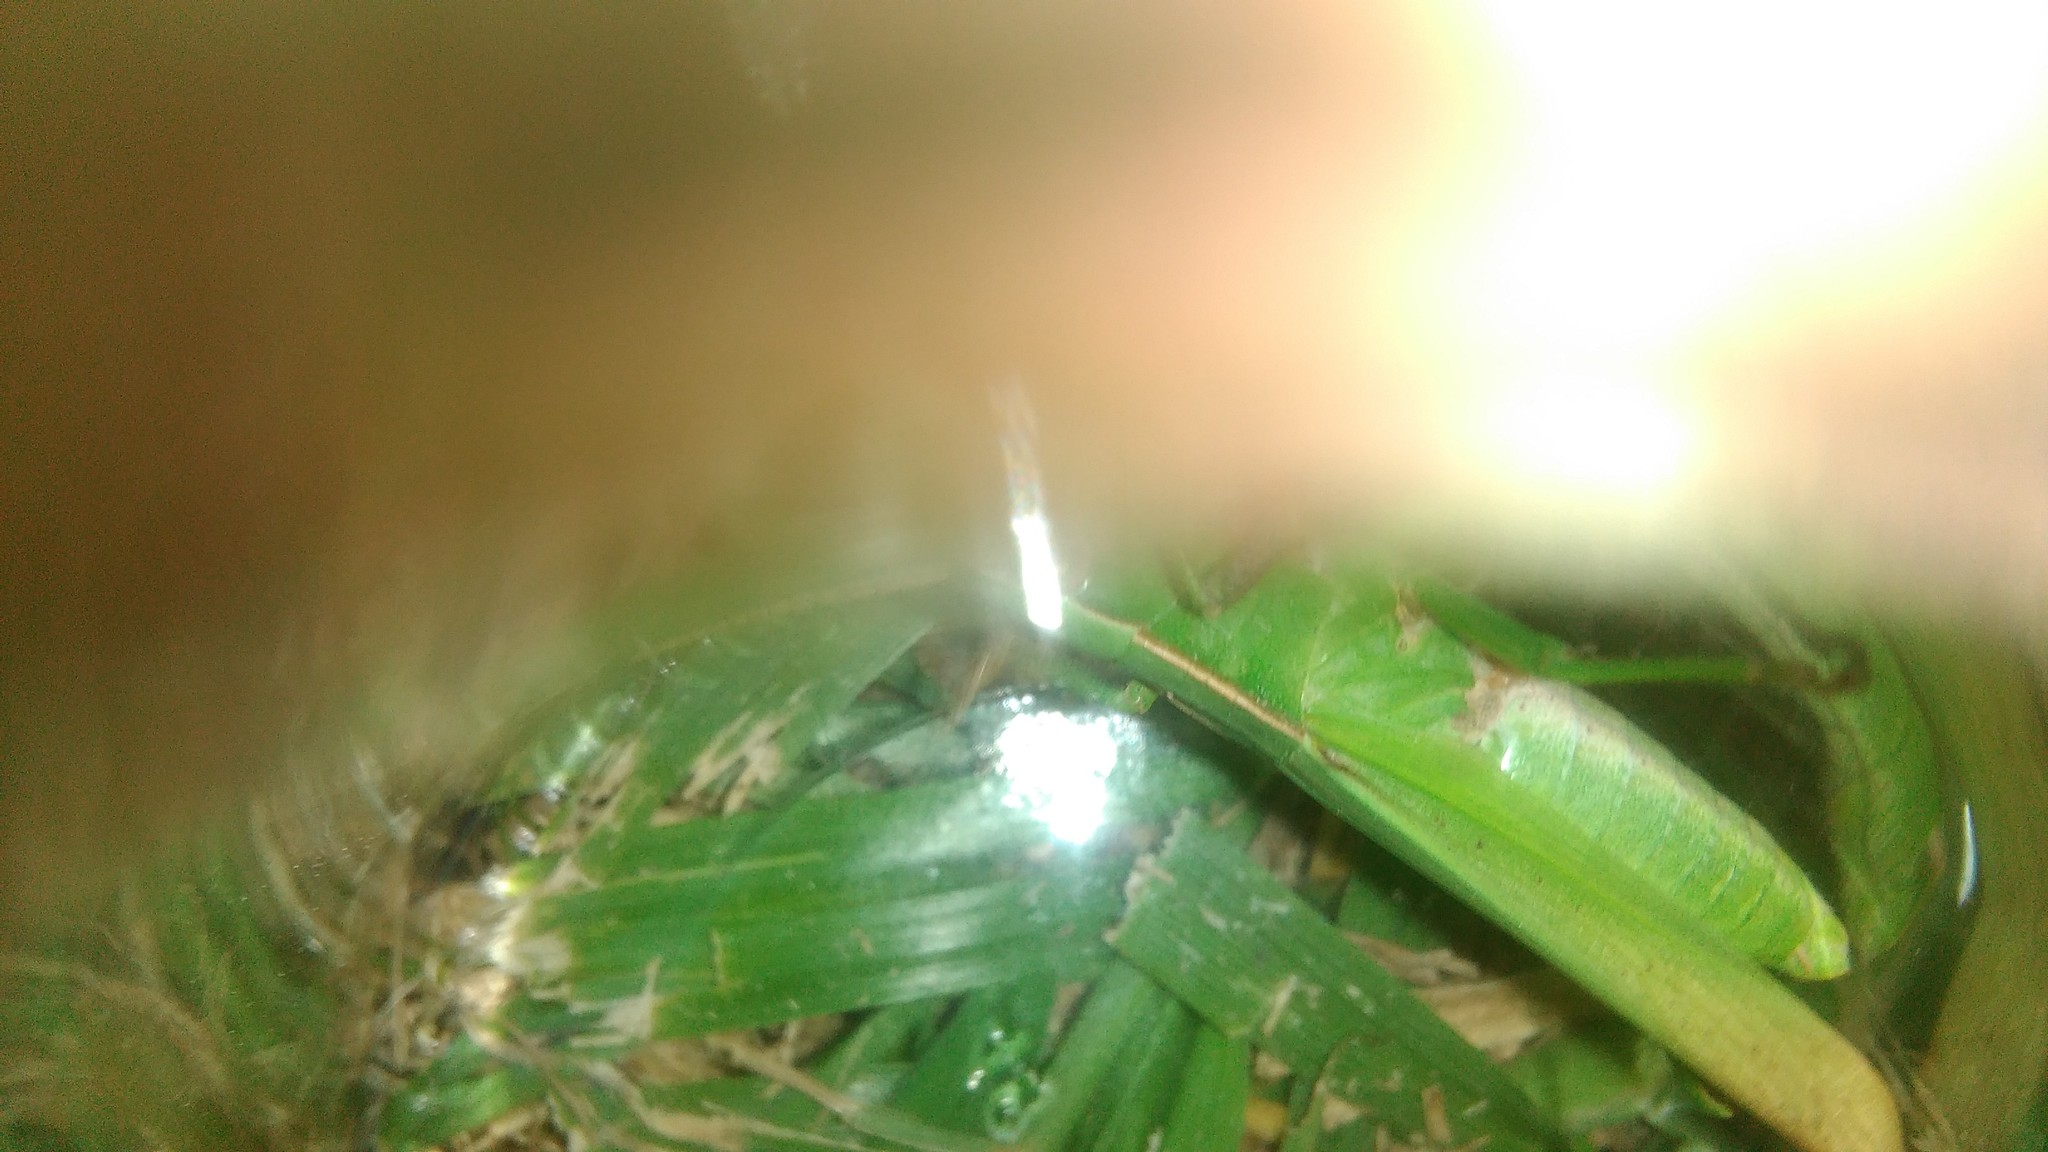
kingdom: Animalia
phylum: Arthropoda
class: Insecta
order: Orthoptera
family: Acrididae
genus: Metaleptea
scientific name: Metaleptea adspersa
